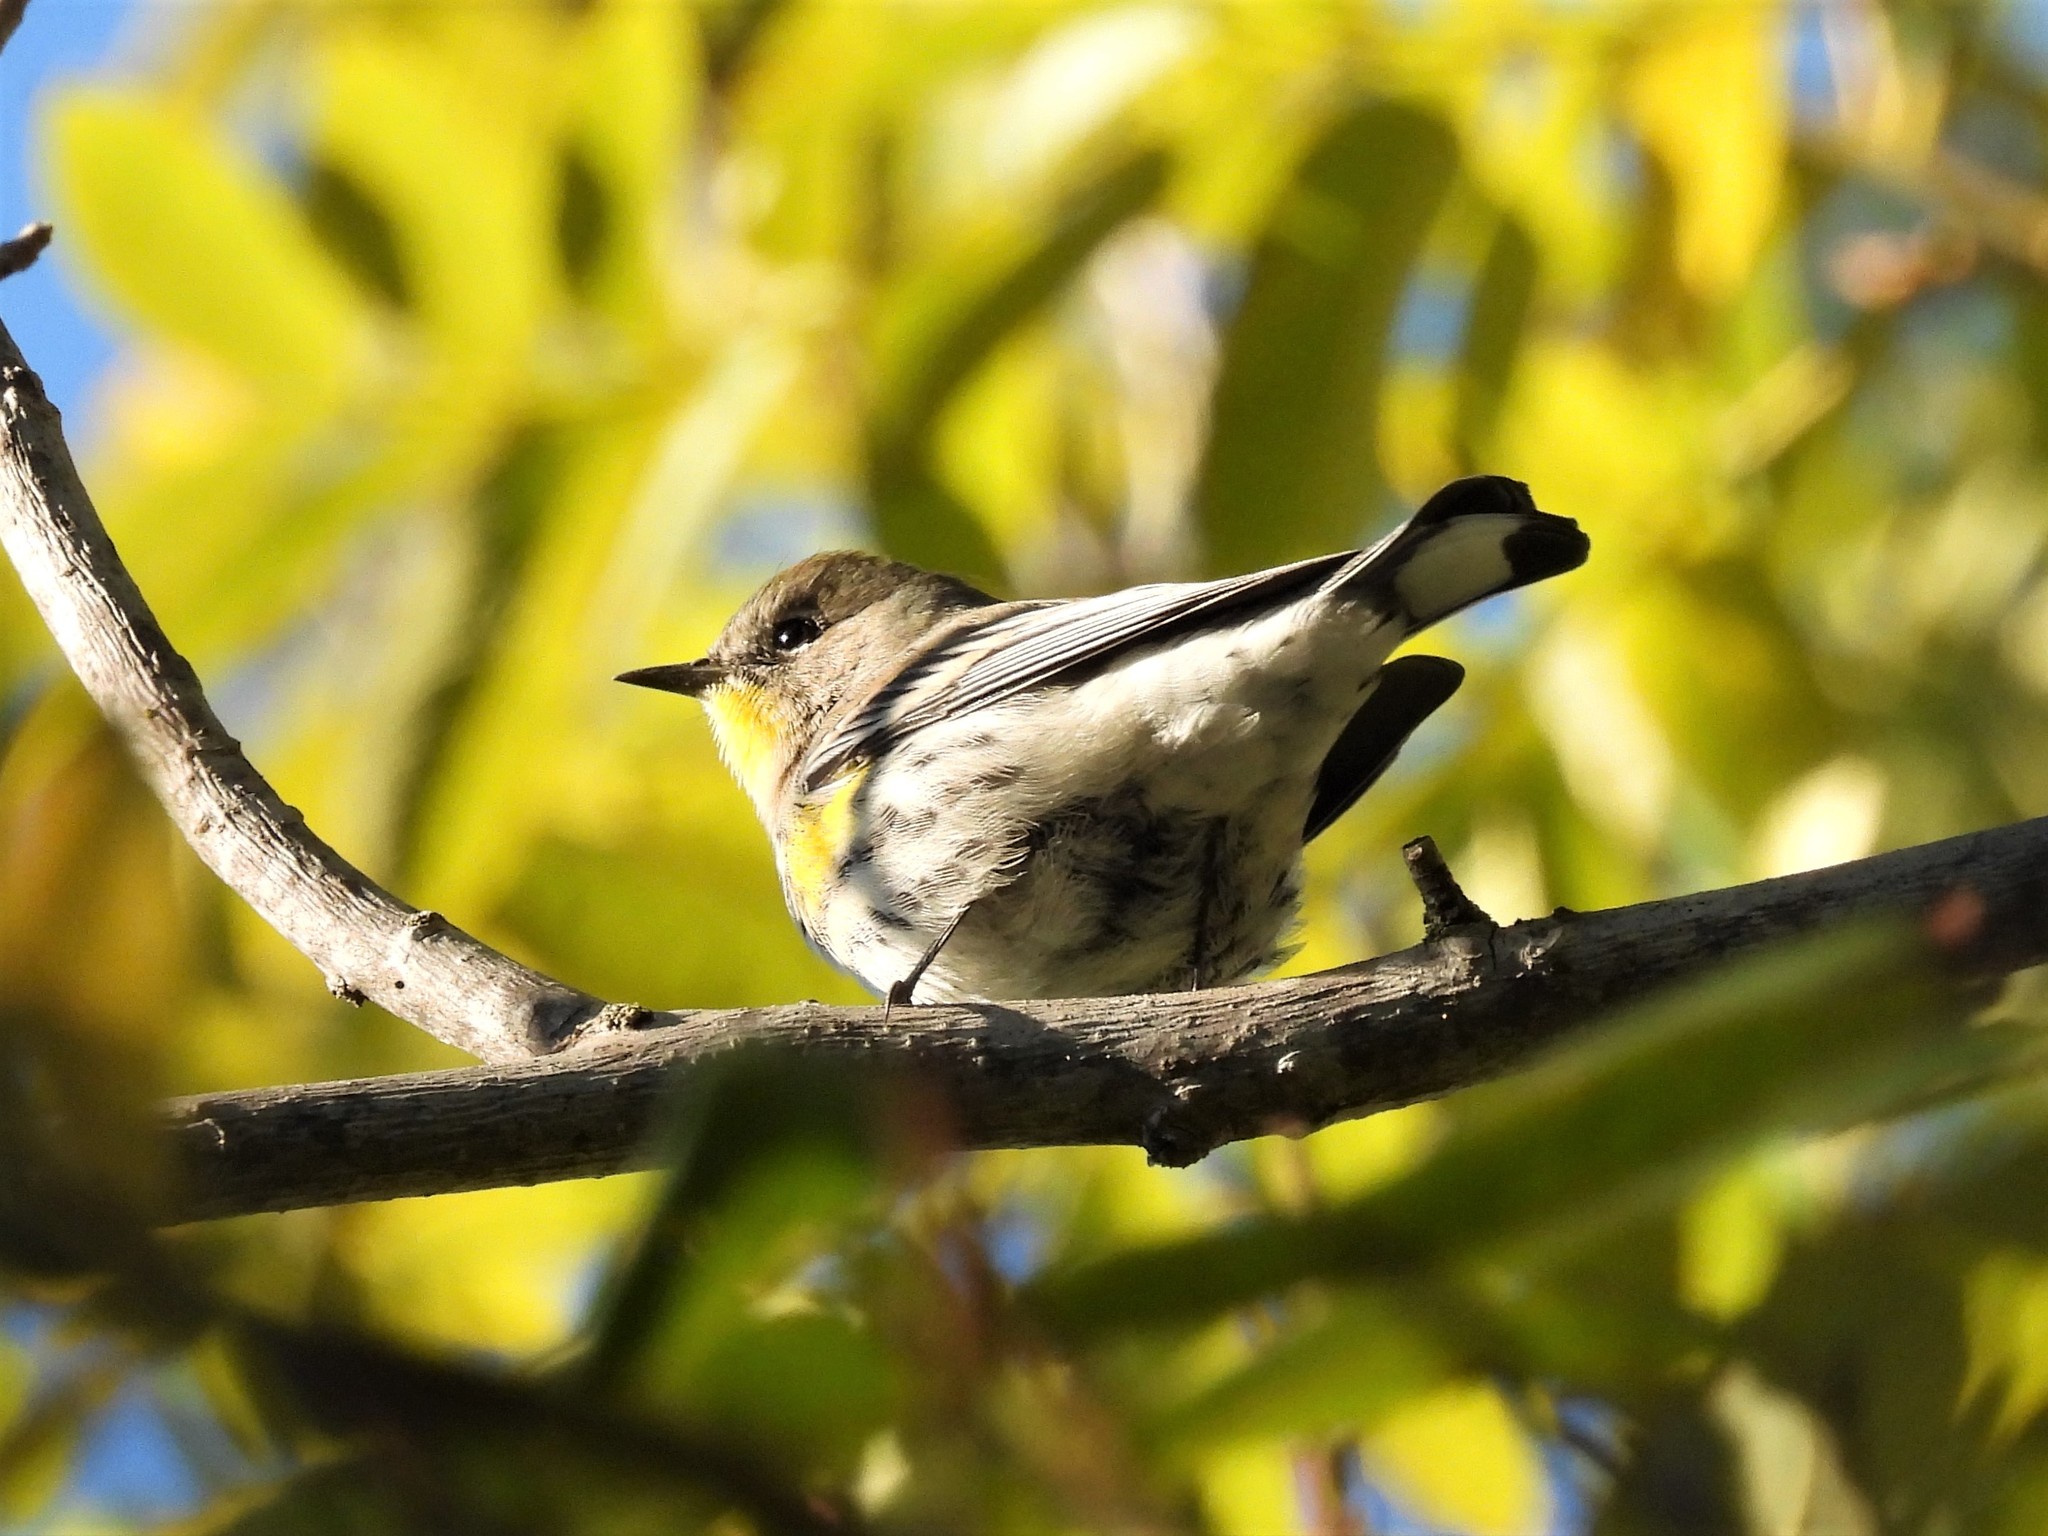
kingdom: Animalia
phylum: Chordata
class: Aves
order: Passeriformes
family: Parulidae
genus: Setophaga
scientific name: Setophaga coronata
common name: Myrtle warbler
